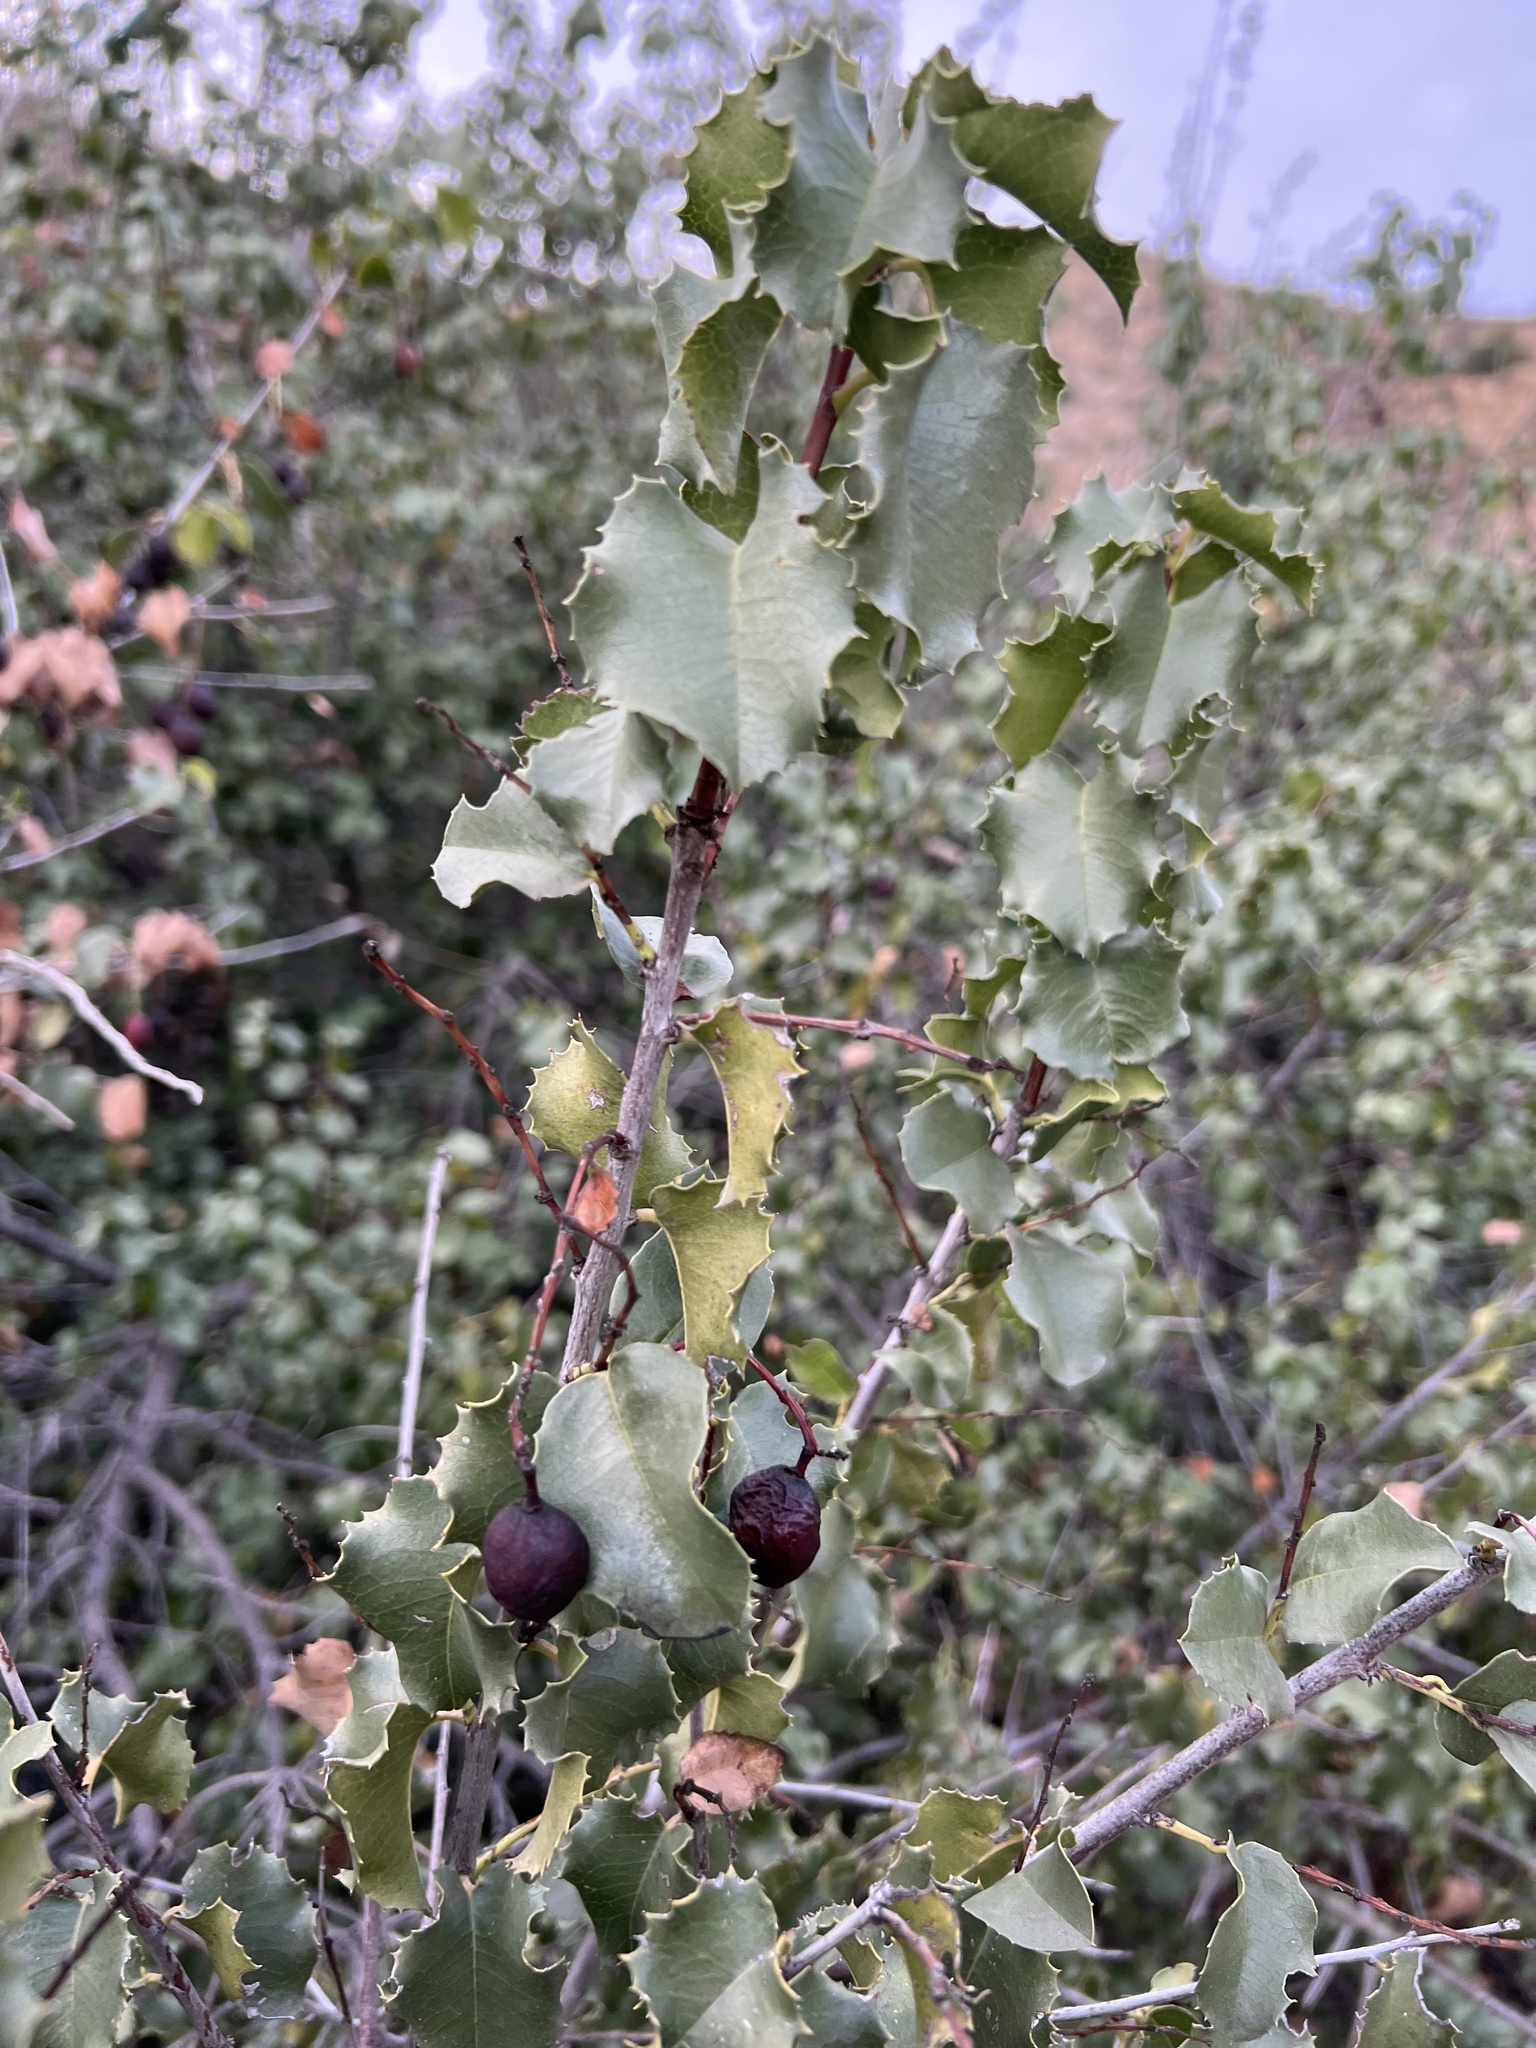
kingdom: Plantae
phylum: Tracheophyta
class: Magnoliopsida
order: Rosales
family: Rosaceae
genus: Prunus
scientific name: Prunus ilicifolia
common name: Hollyleaf cherry
